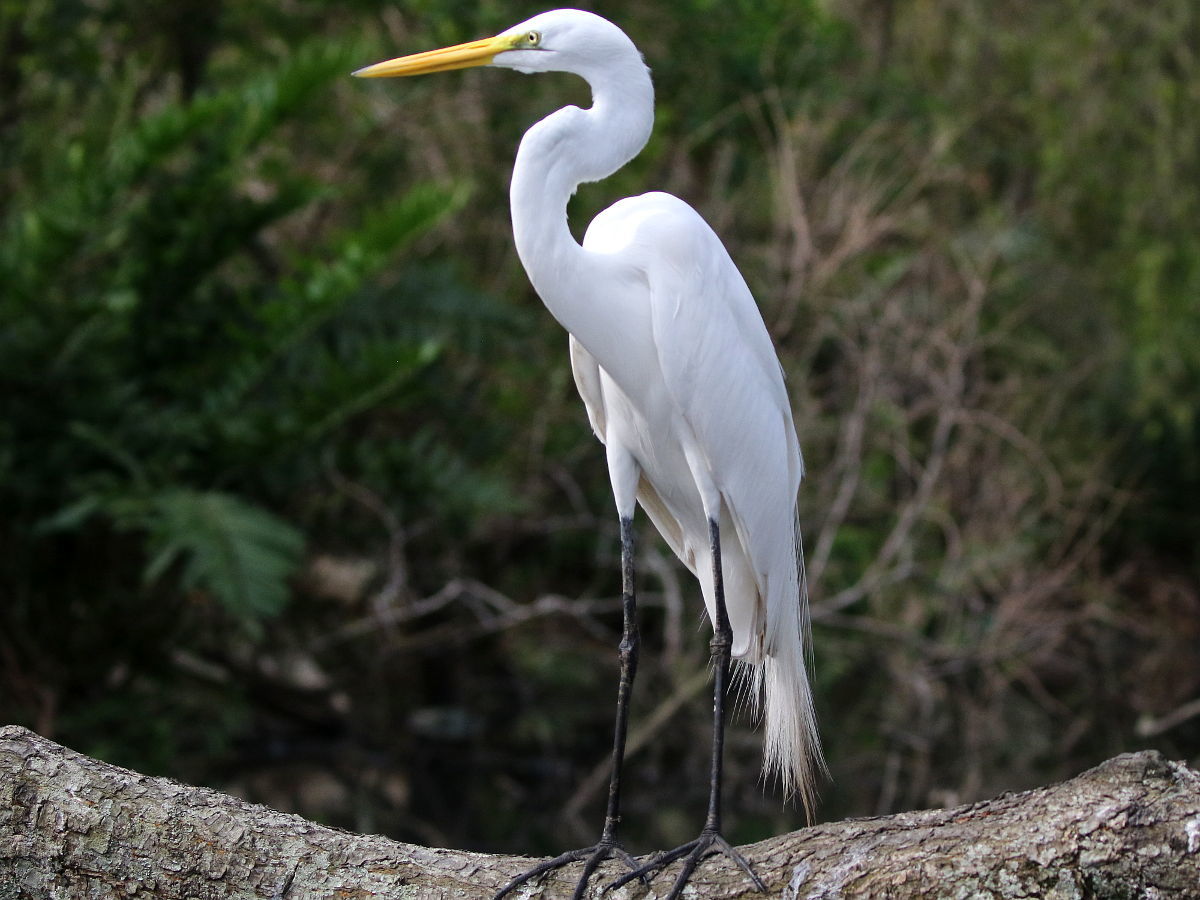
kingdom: Animalia
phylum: Chordata
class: Aves
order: Pelecaniformes
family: Ardeidae
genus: Ardea
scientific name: Ardea alba
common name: Great egret
